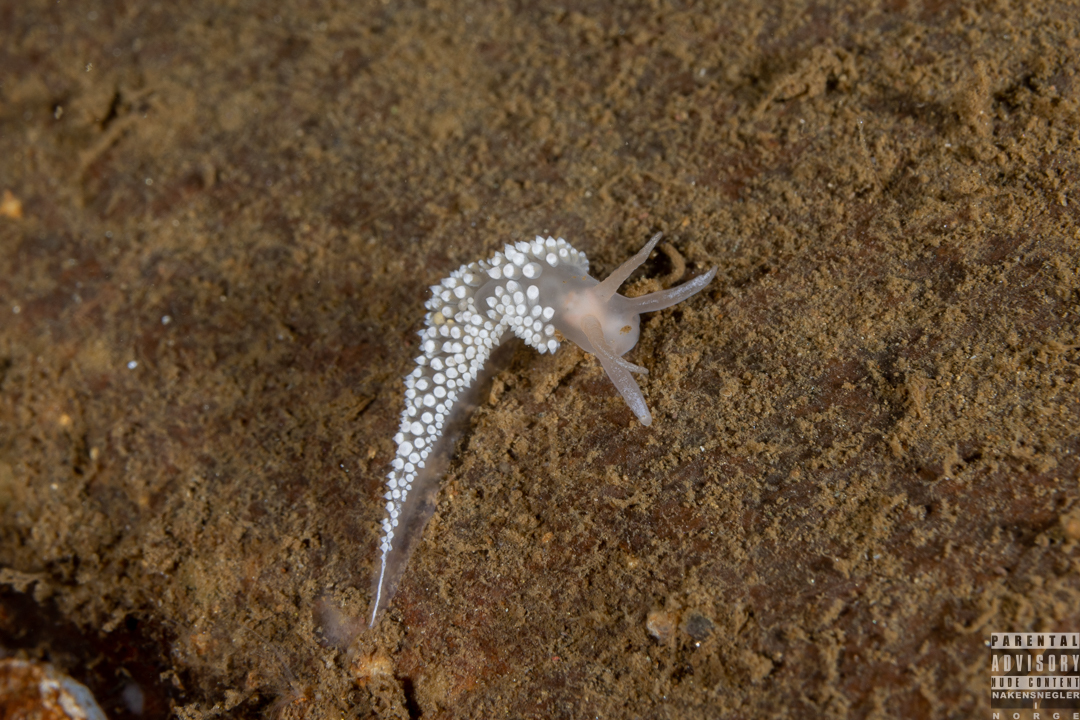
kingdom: Animalia
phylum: Mollusca
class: Gastropoda
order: Nudibranchia
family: Coryphellidae
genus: Coryphella
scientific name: Coryphella verrucosa
